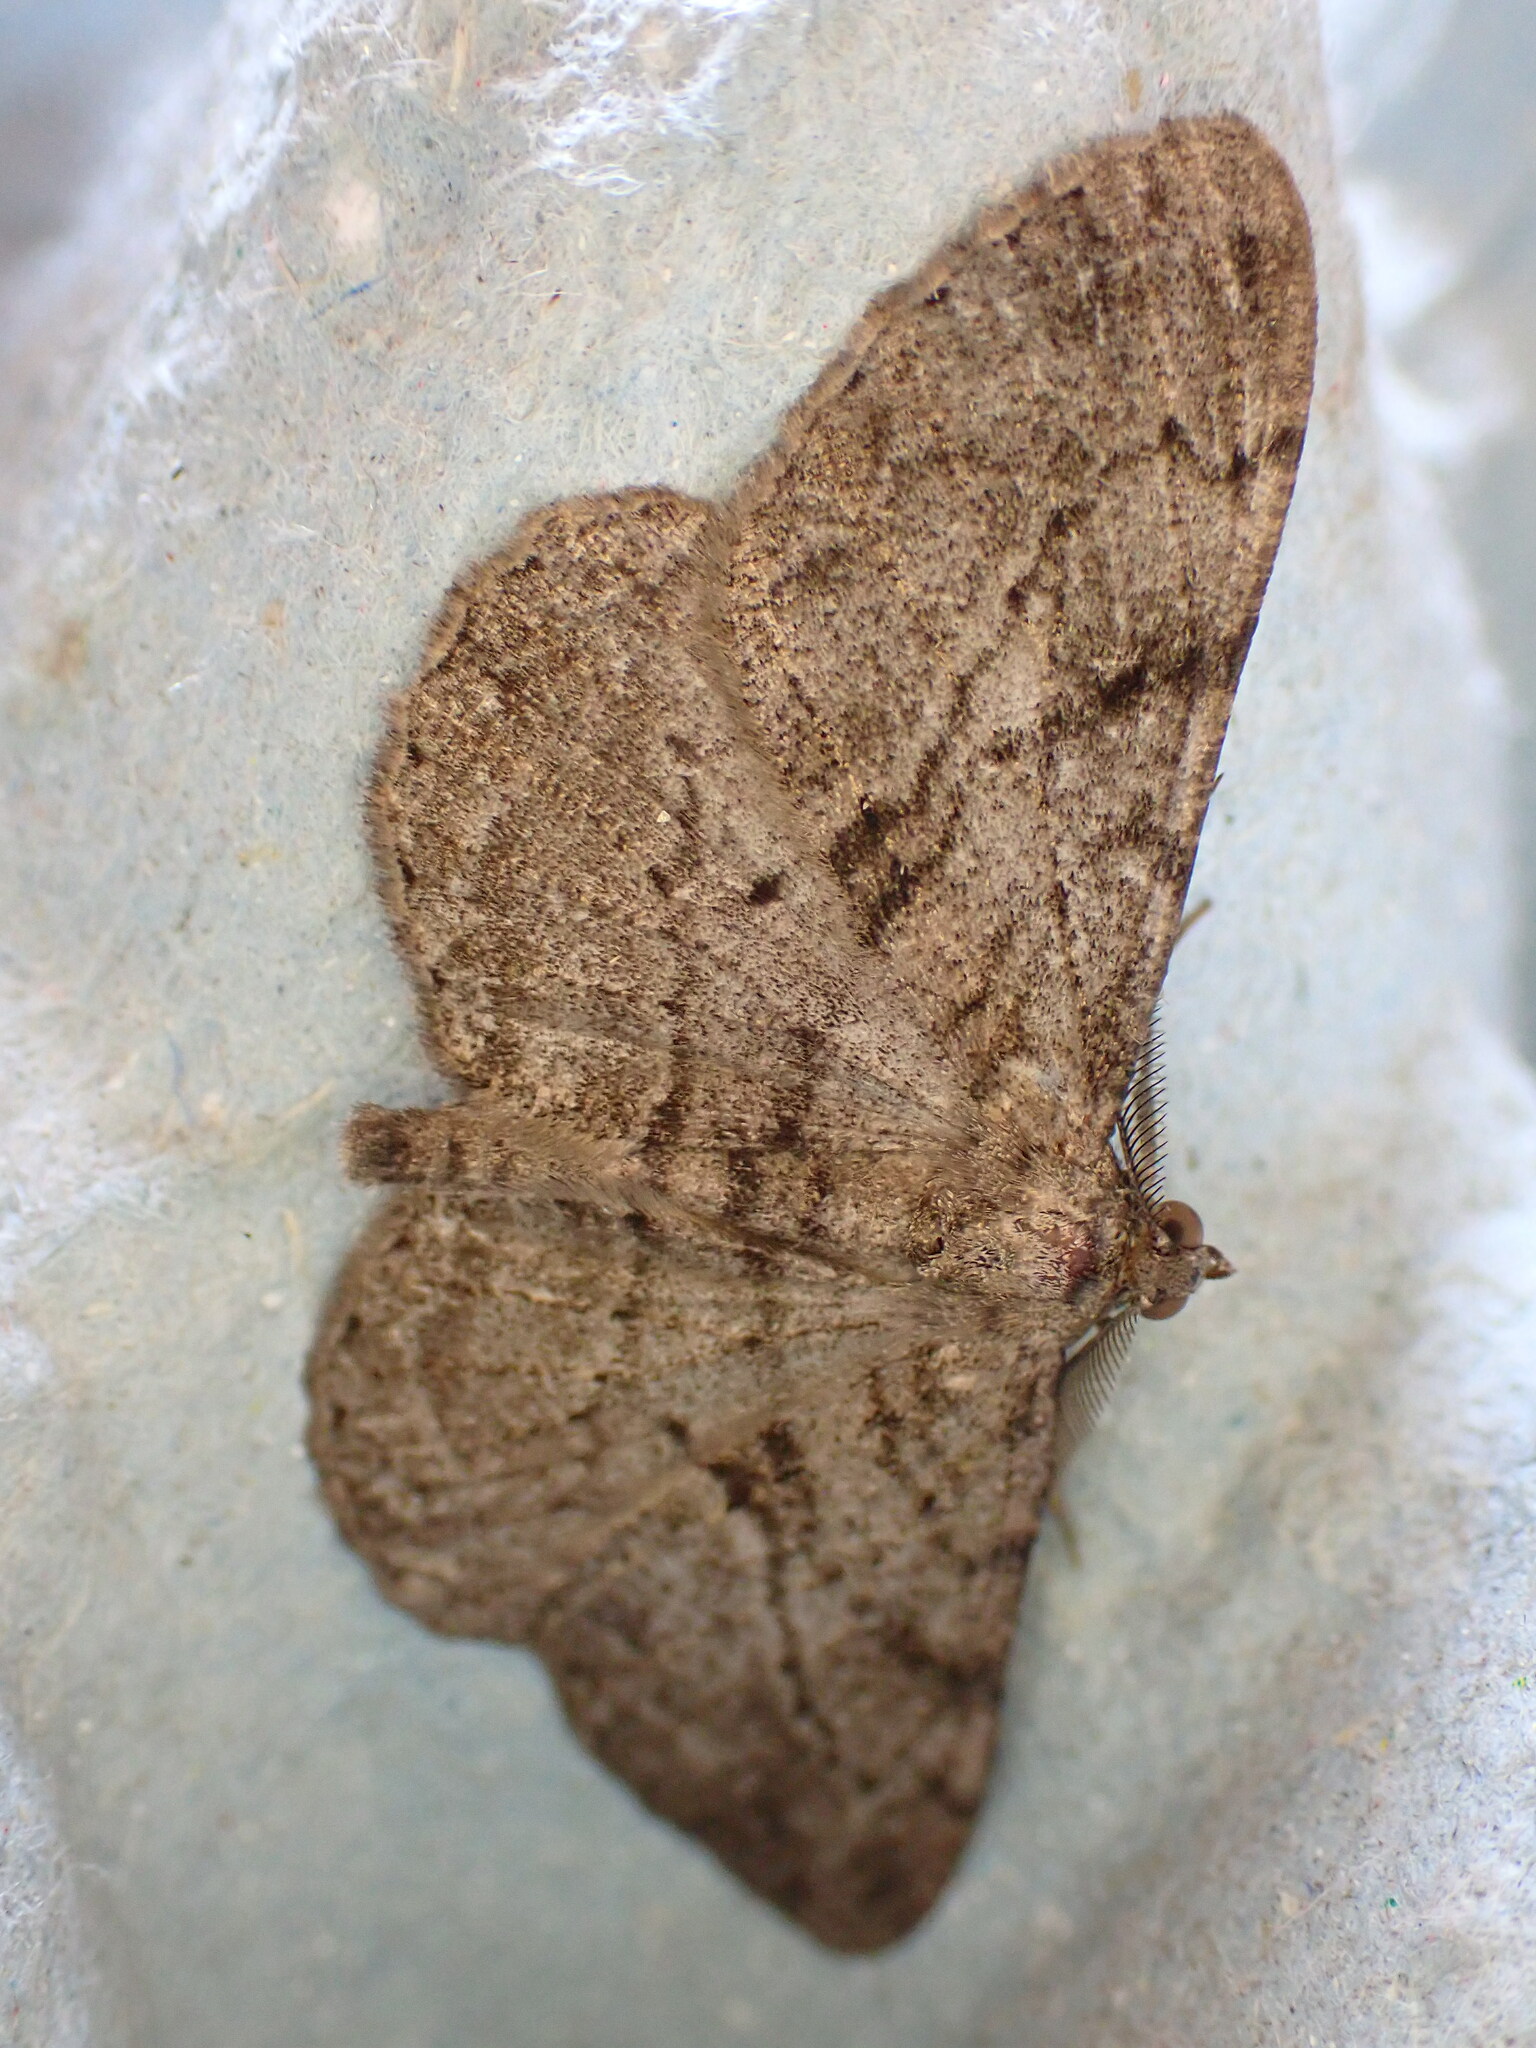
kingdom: Animalia
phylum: Arthropoda
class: Insecta
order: Lepidoptera
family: Geometridae
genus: Peribatodes
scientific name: Peribatodes rhomboidaria
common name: Willow beauty
